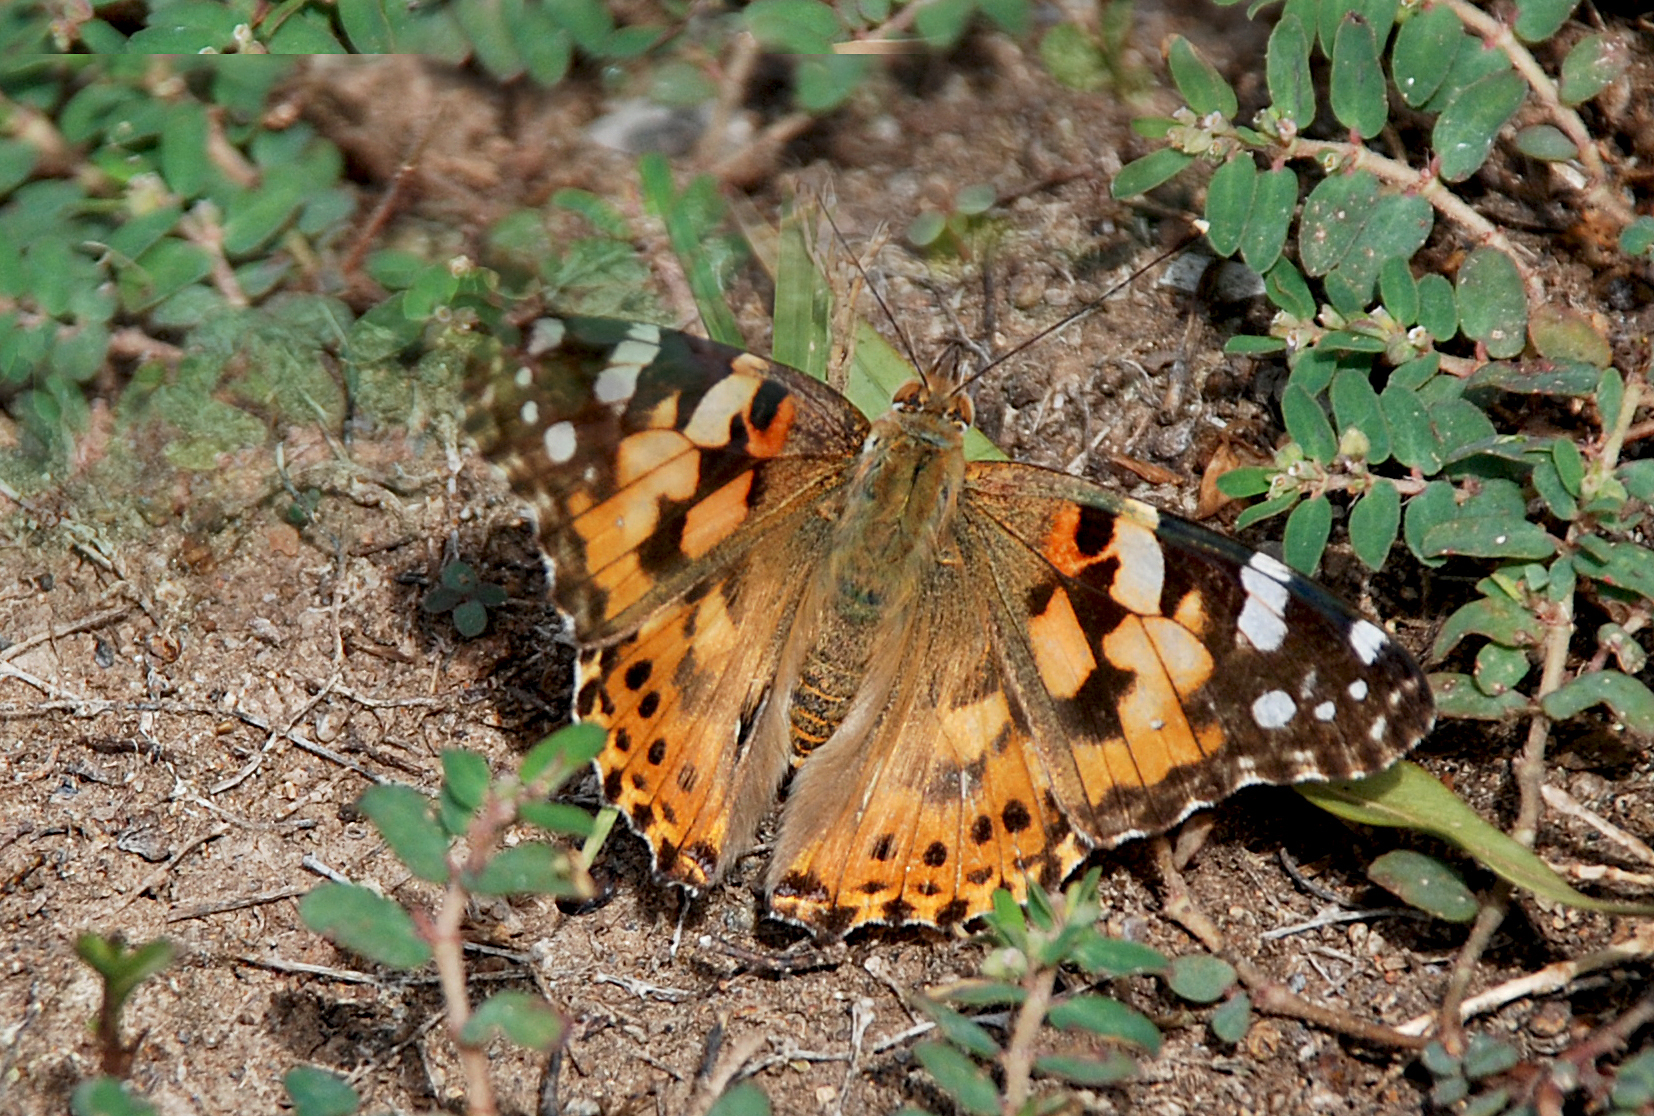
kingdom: Animalia
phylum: Arthropoda
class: Insecta
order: Lepidoptera
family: Nymphalidae
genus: Vanessa
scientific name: Vanessa cardui
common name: Painted lady
